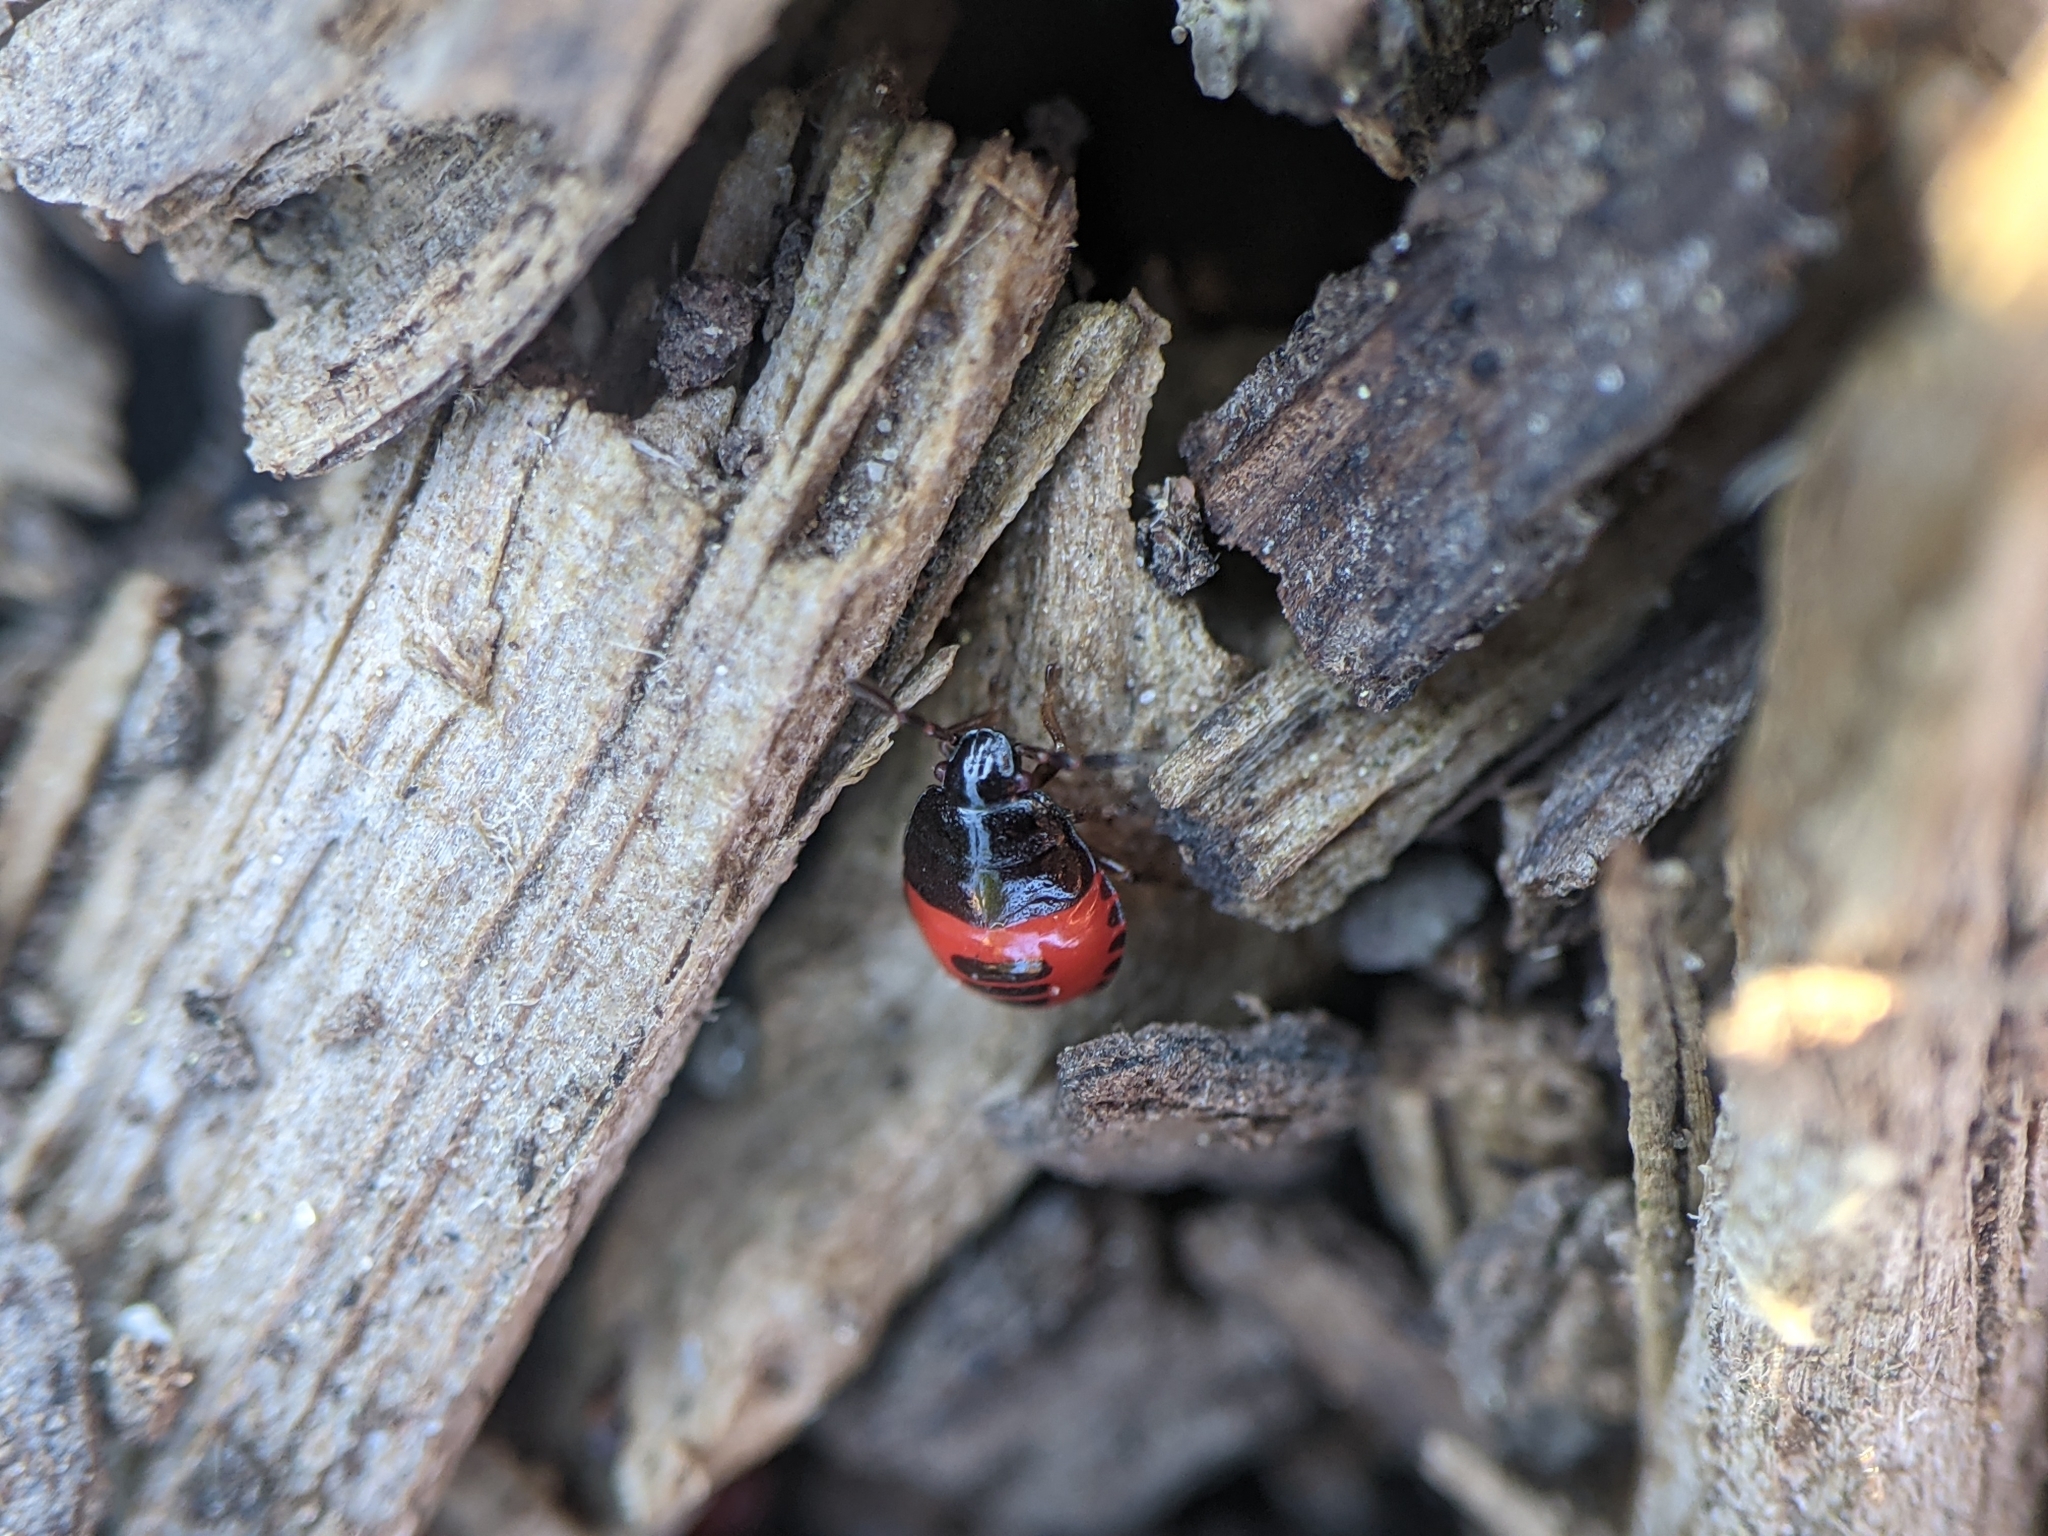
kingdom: Animalia
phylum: Arthropoda
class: Insecta
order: Hemiptera
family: Cydnidae
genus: Sehirus
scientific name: Sehirus cinctus
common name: White-margined burrower bug
